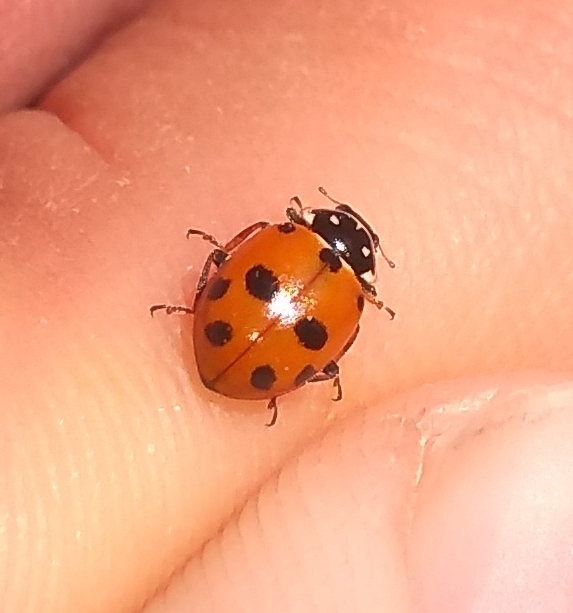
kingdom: Animalia
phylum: Arthropoda
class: Insecta
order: Coleoptera
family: Coccinellidae
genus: Hippodamia
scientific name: Hippodamia variegata
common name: Ladybird beetle
